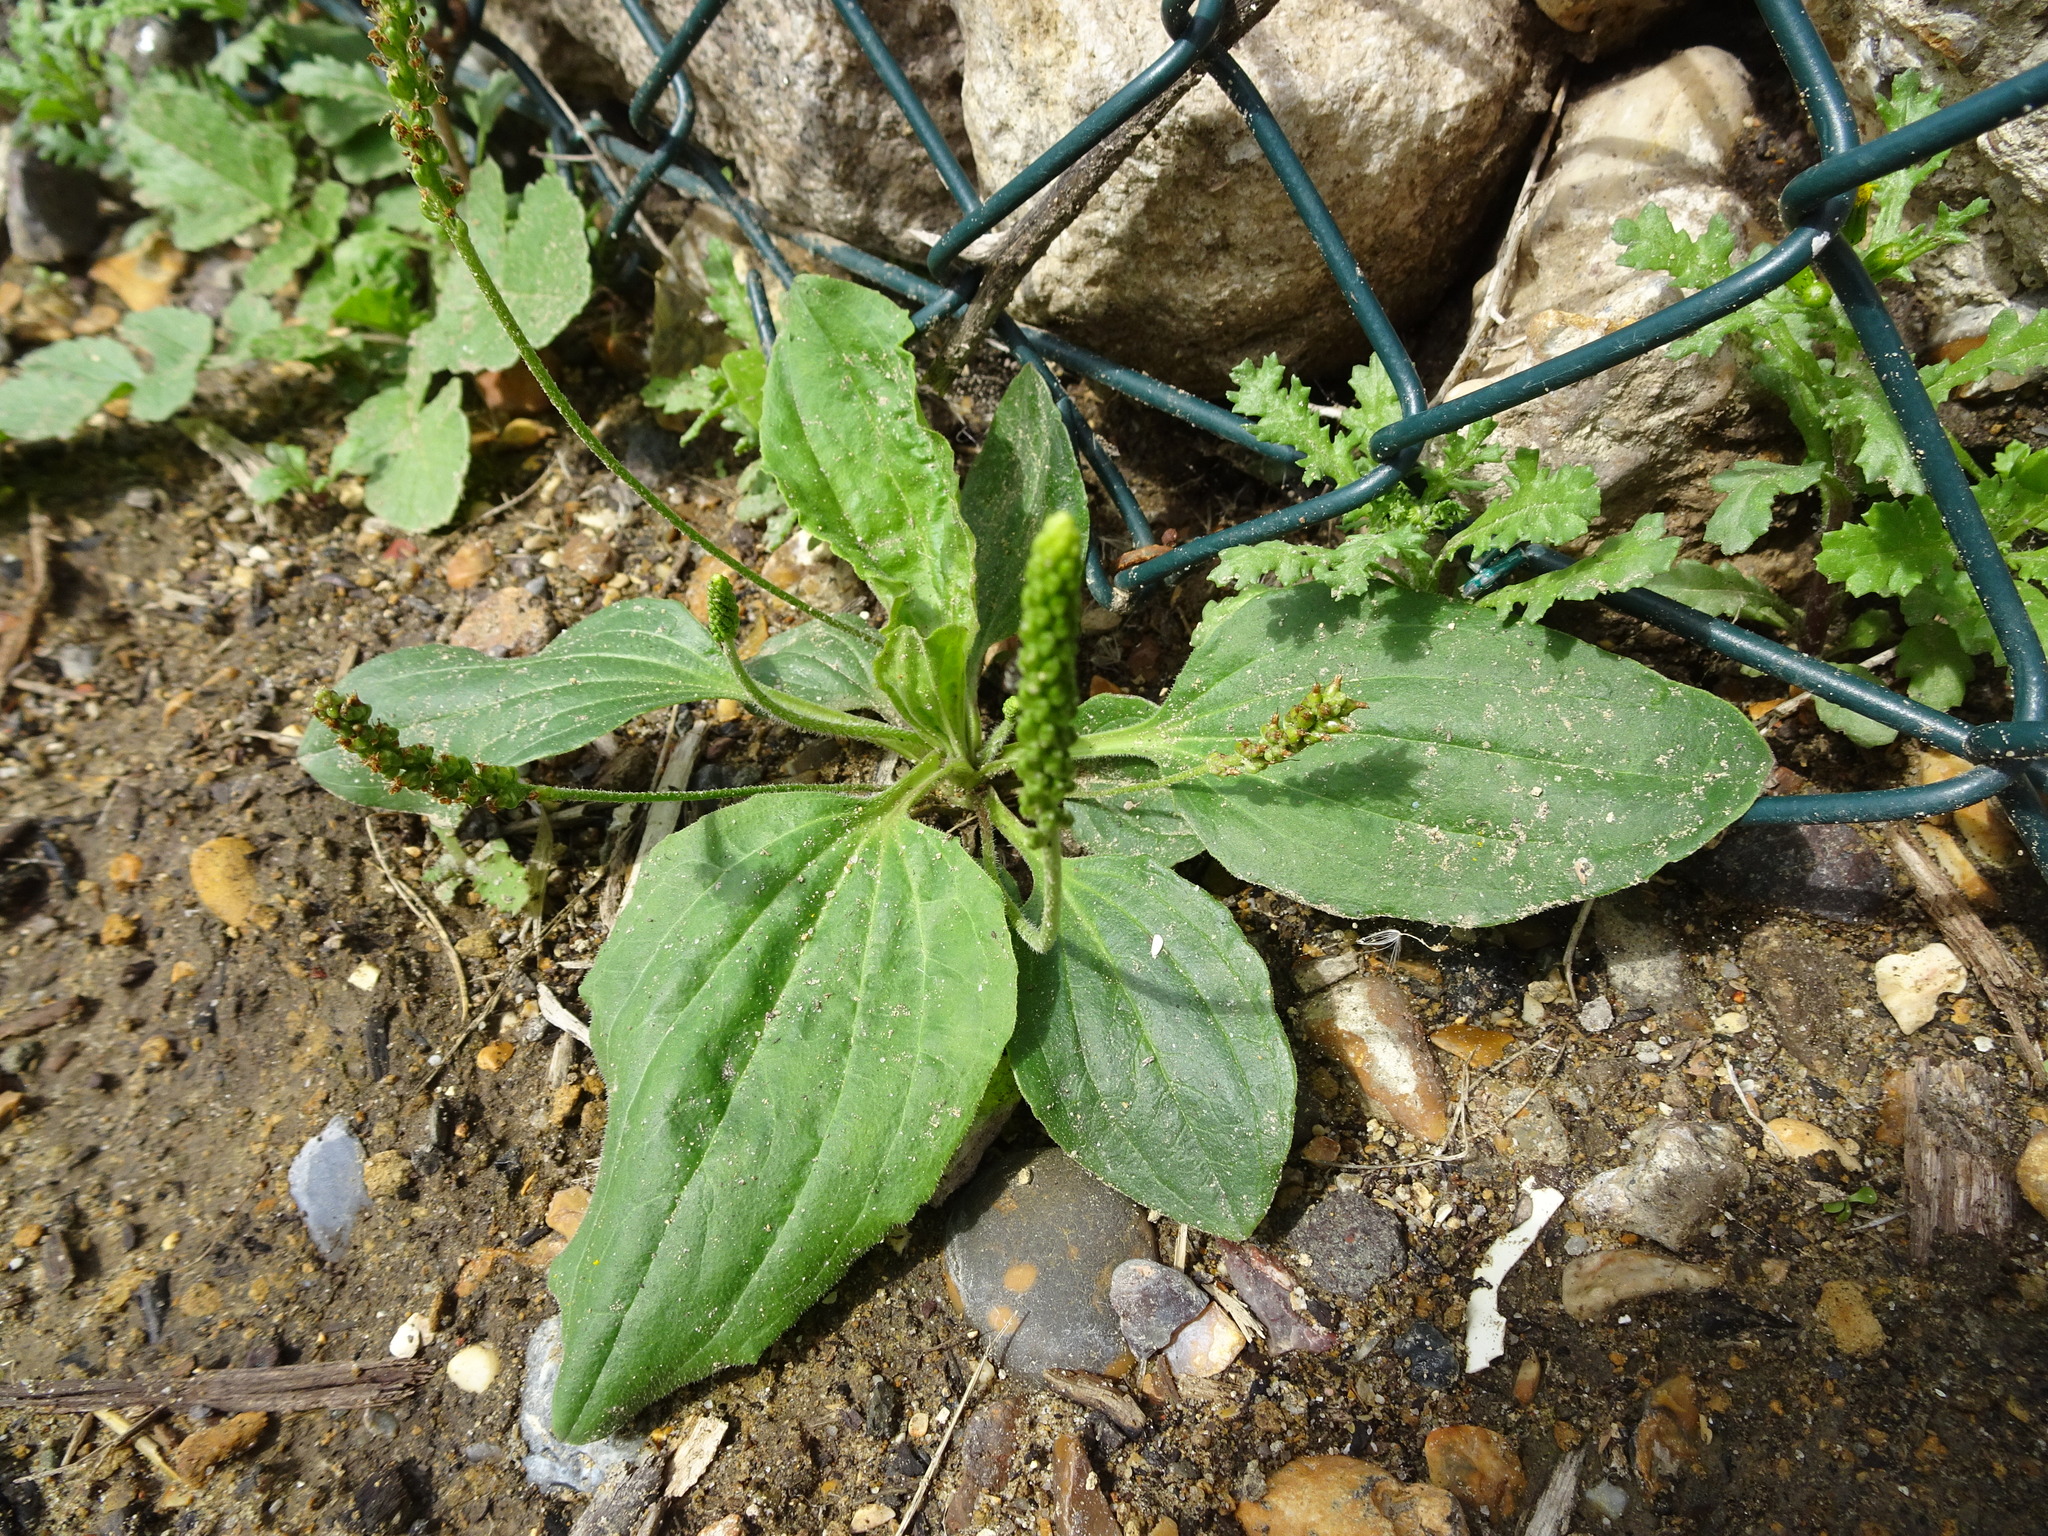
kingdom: Plantae
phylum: Tracheophyta
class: Magnoliopsida
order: Lamiales
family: Plantaginaceae
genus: Plantago
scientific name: Plantago major
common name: Common plantain
